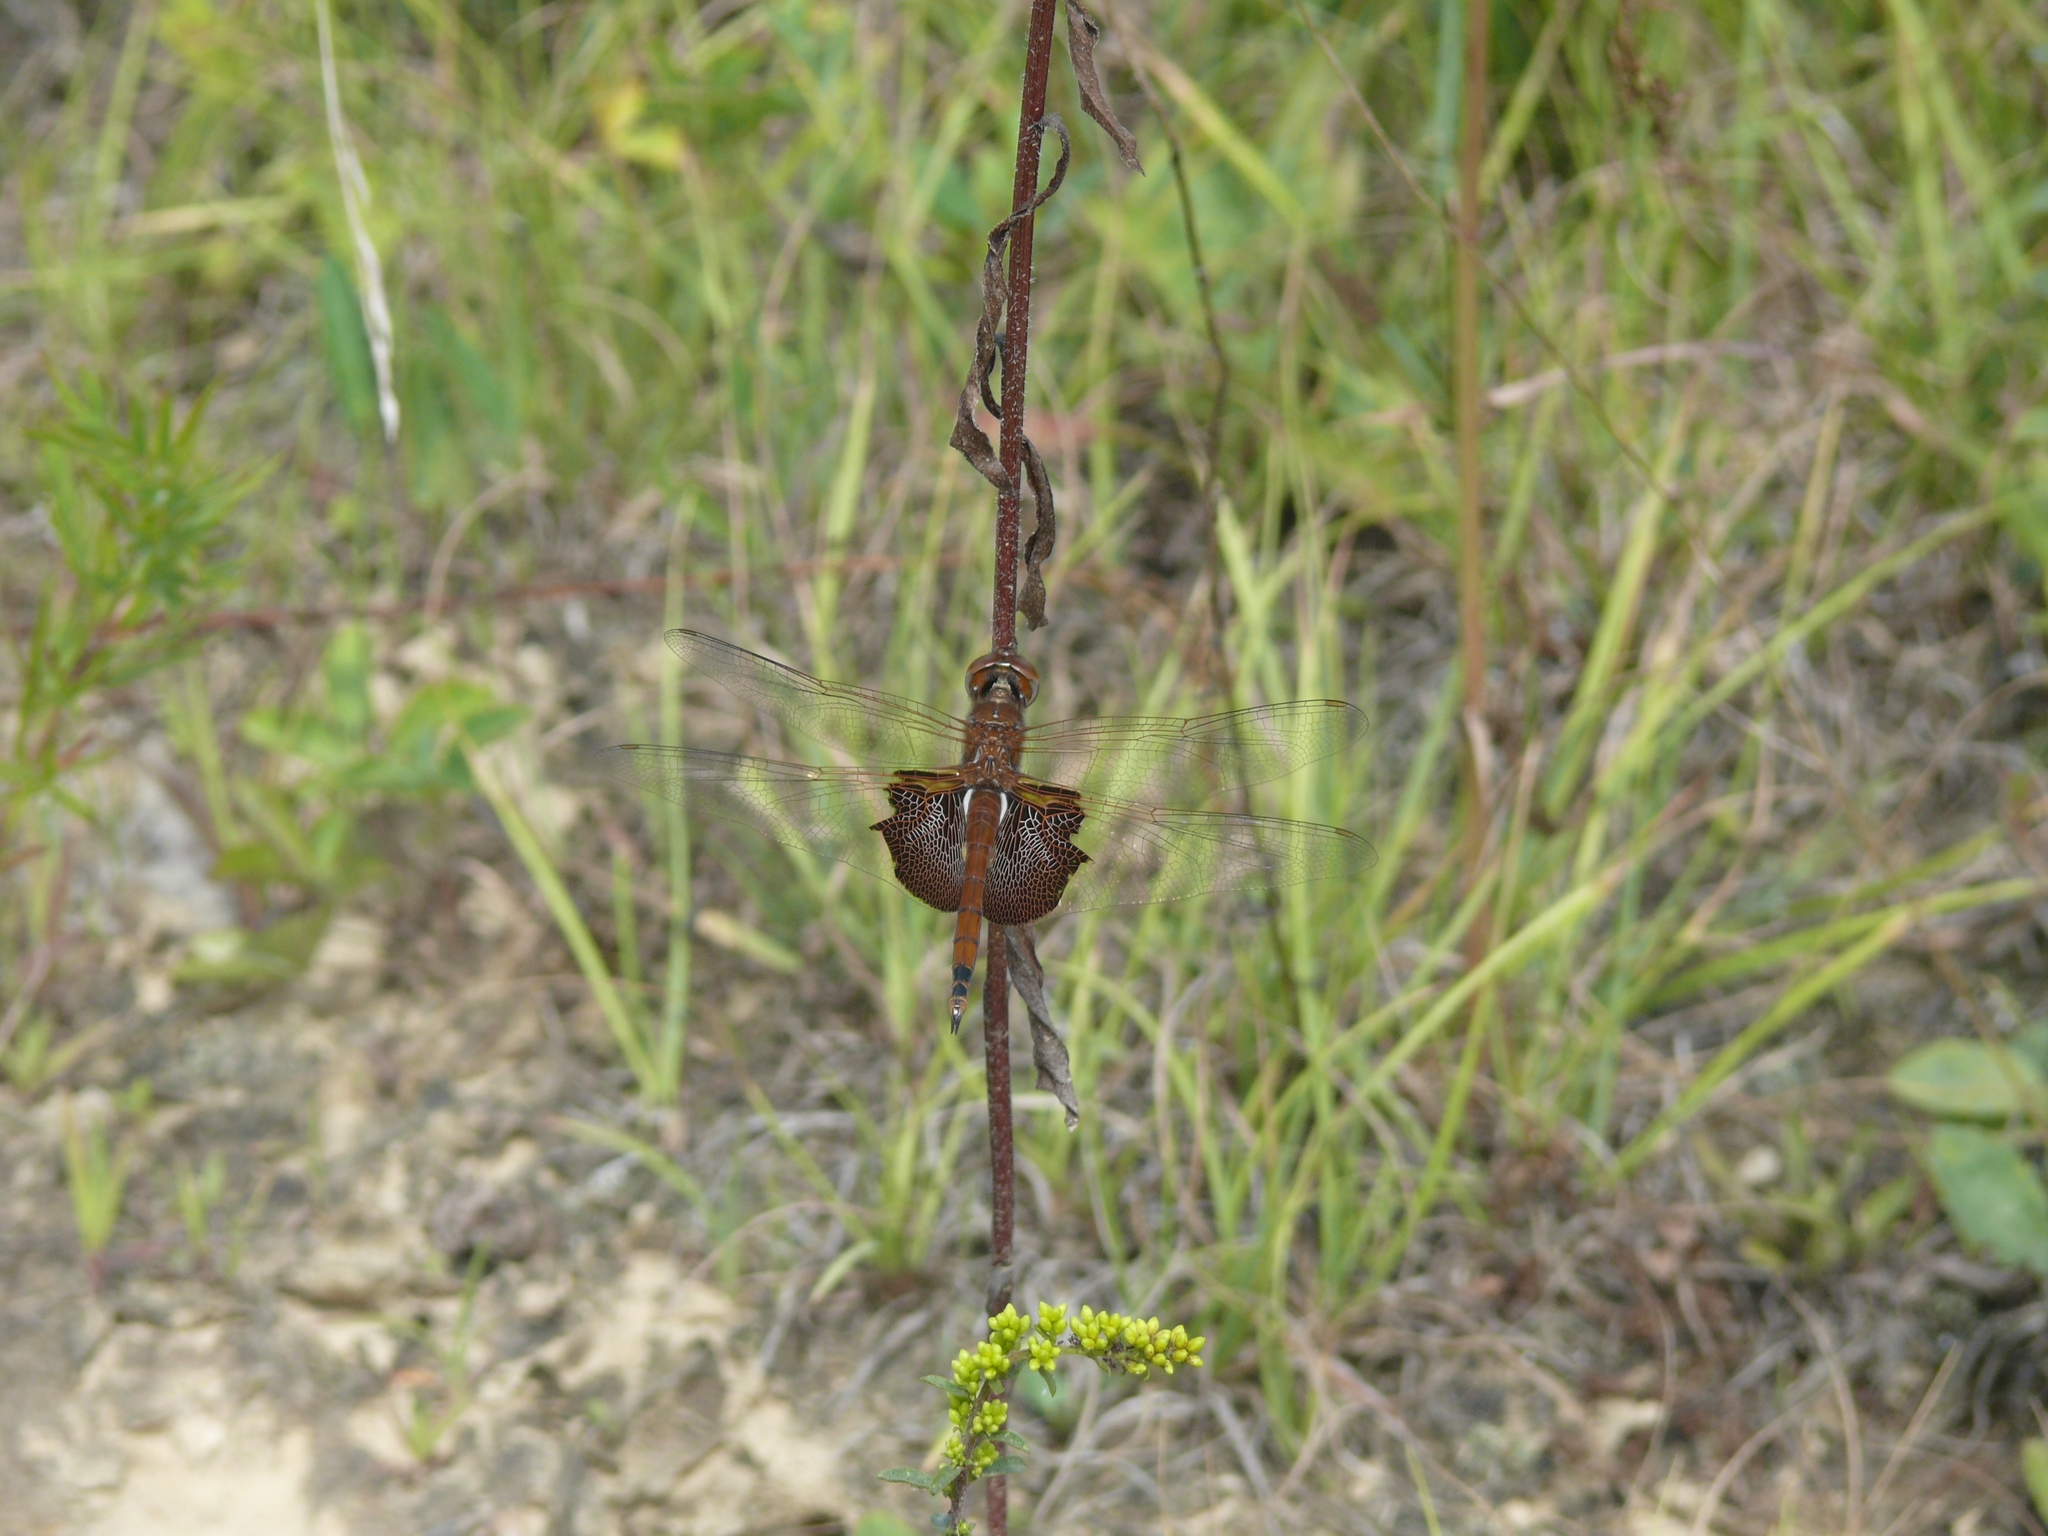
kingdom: Animalia
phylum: Arthropoda
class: Insecta
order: Odonata
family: Libellulidae
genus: Tramea
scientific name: Tramea carolina
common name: Carolina saddlebags
